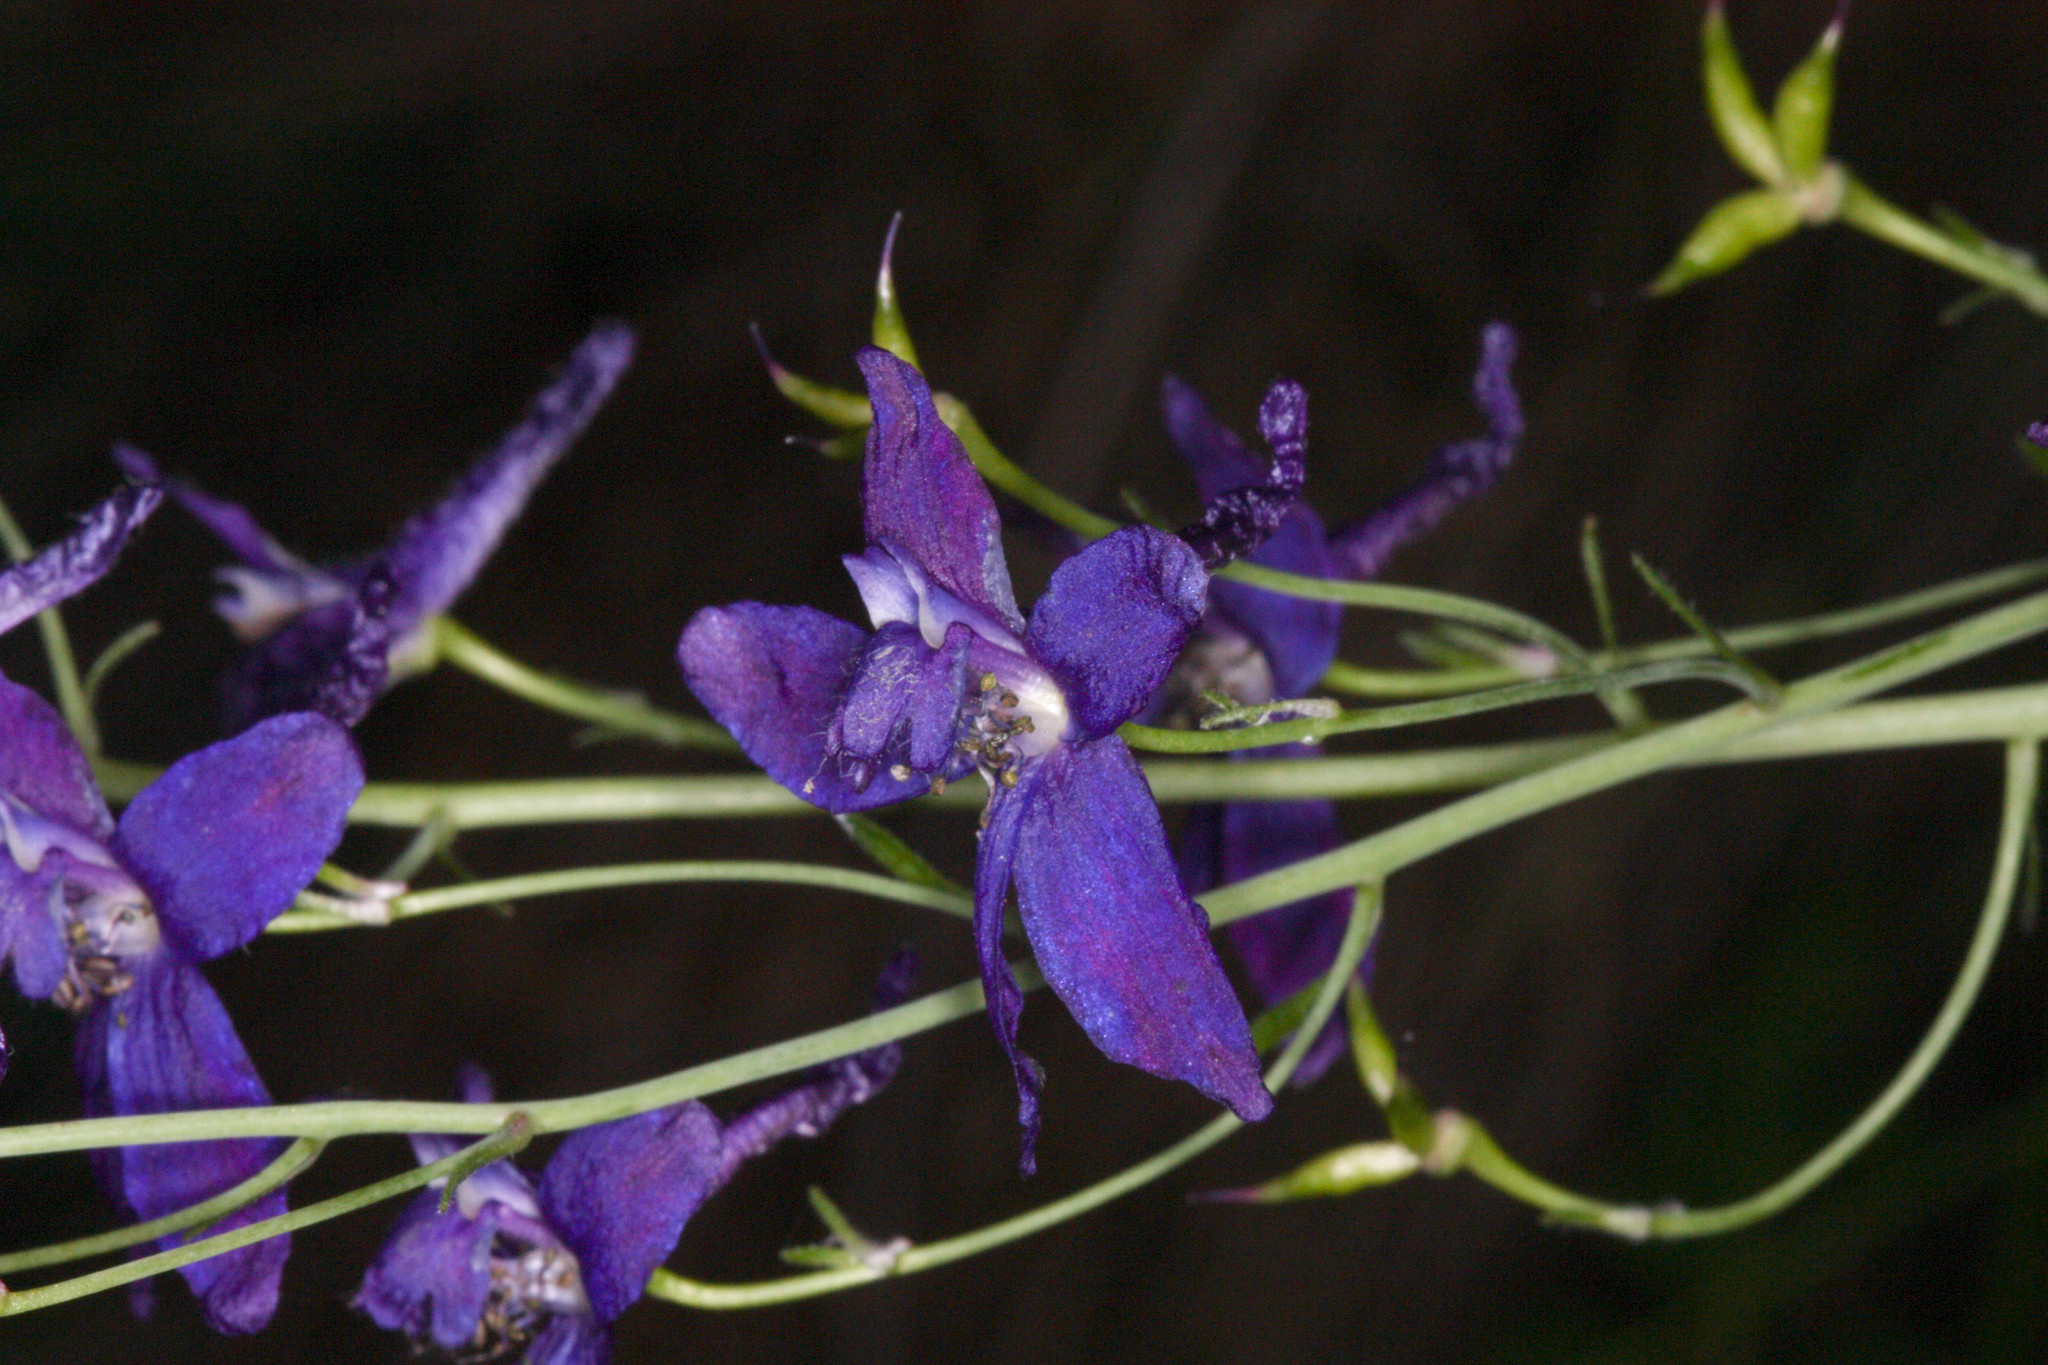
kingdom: Plantae
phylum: Tracheophyta
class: Magnoliopsida
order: Ranunculales
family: Ranunculaceae
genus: Delphinium
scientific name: Delphinium patens
